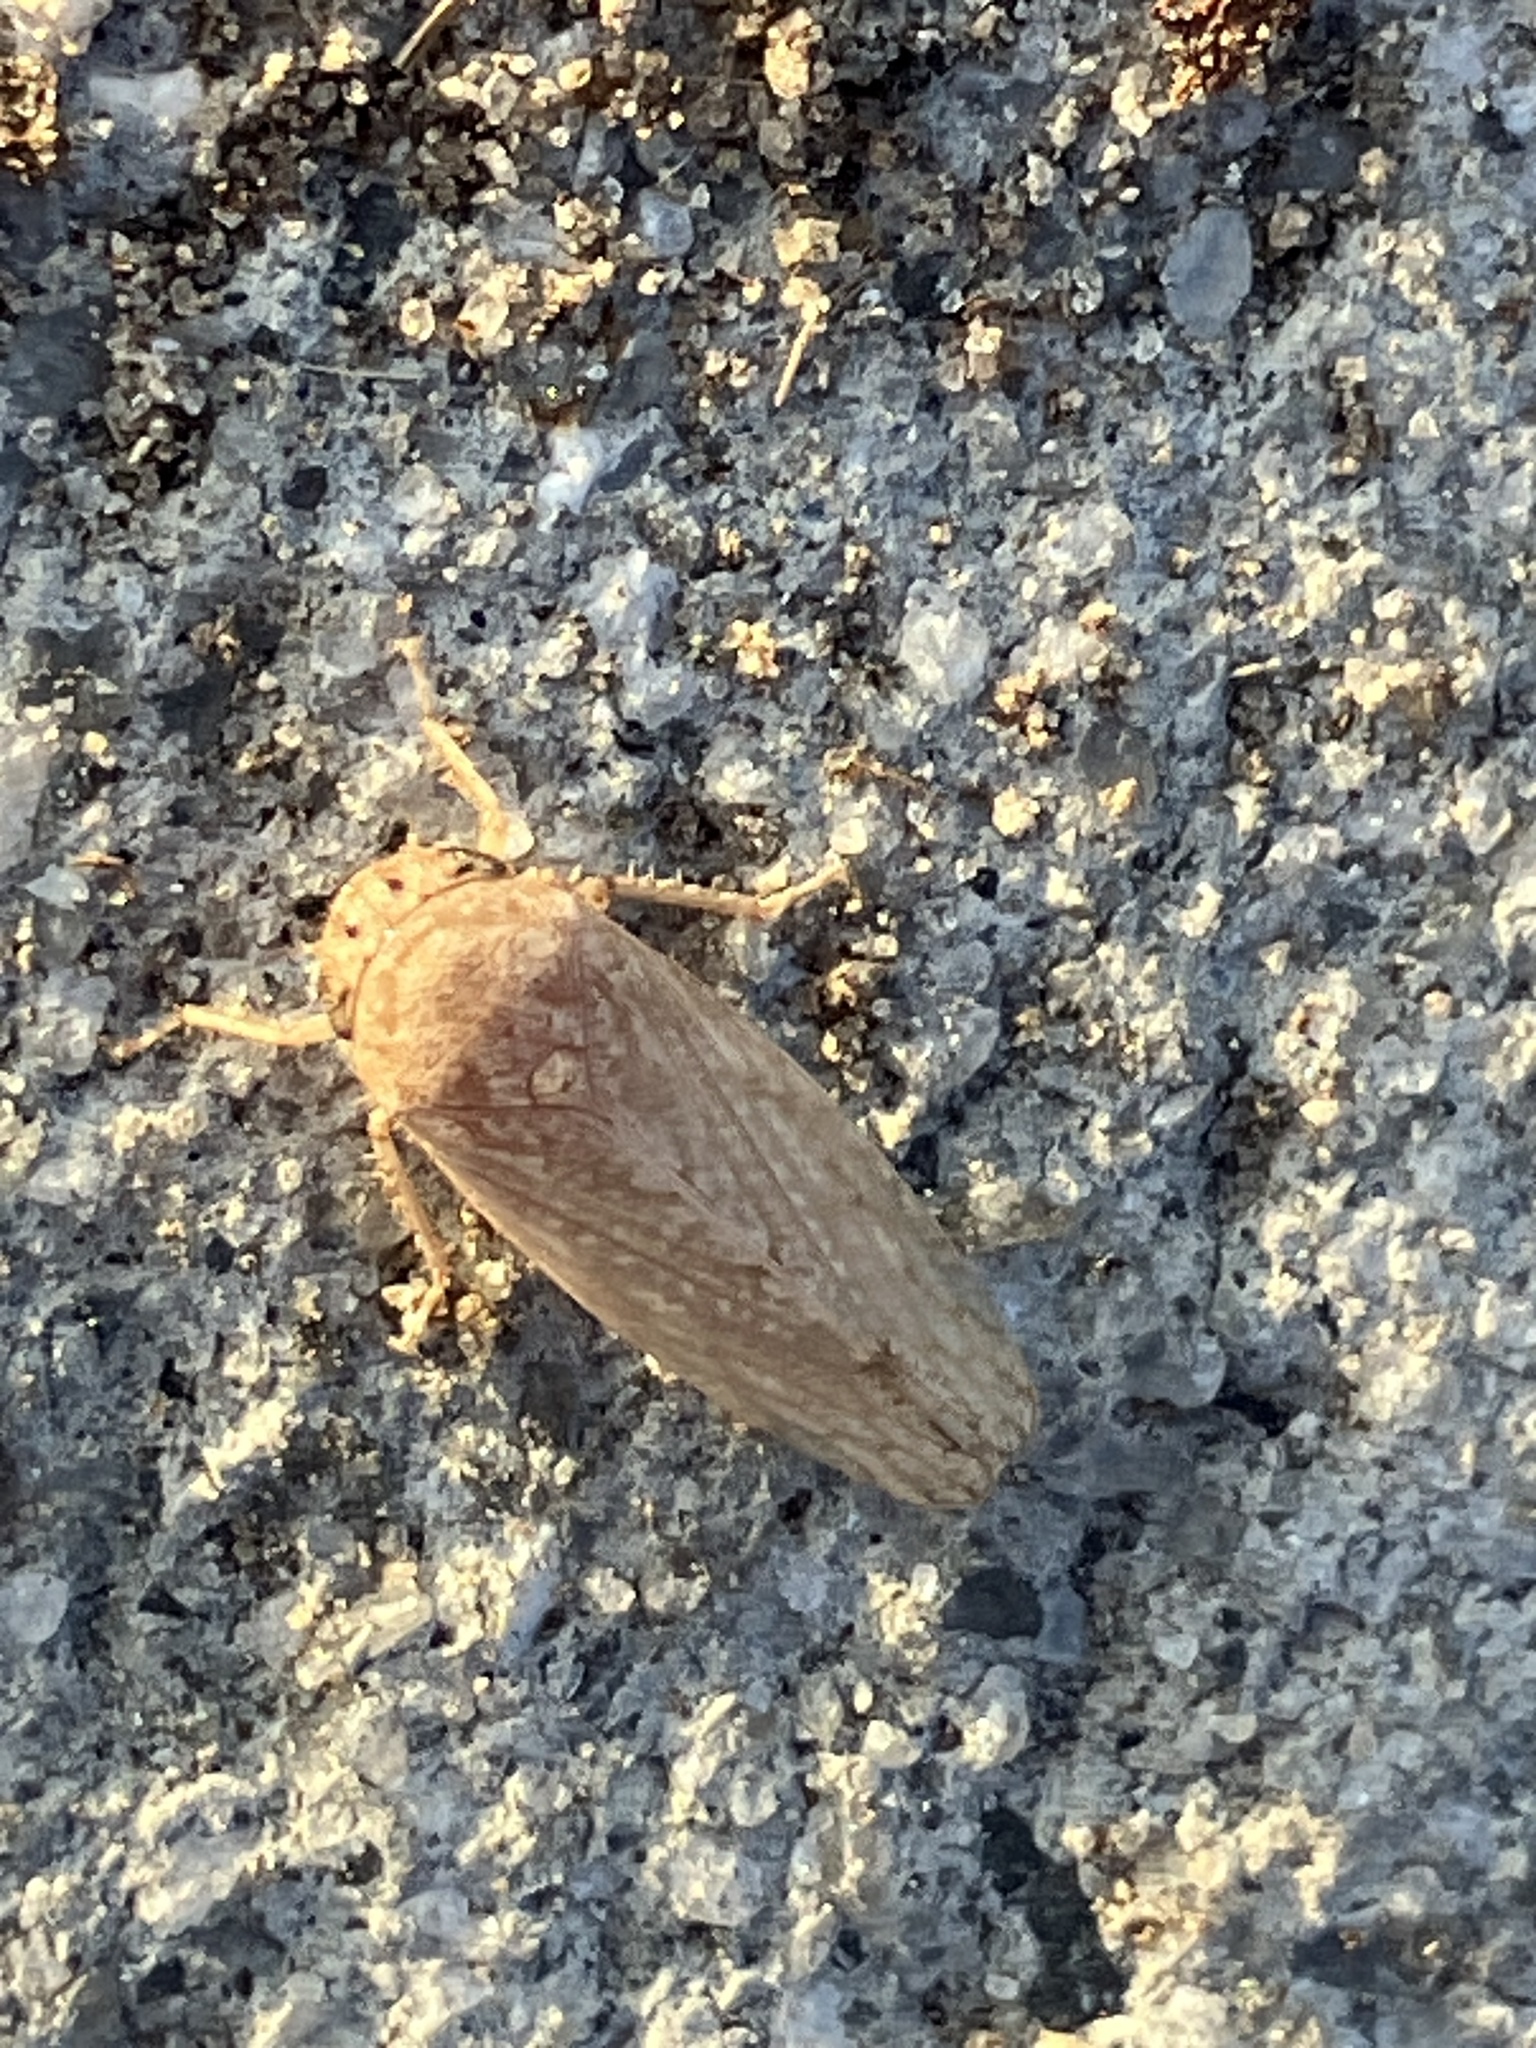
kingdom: Animalia
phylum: Arthropoda
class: Insecta
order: Hemiptera
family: Cicadellidae
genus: Curtara
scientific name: Curtara insularis
